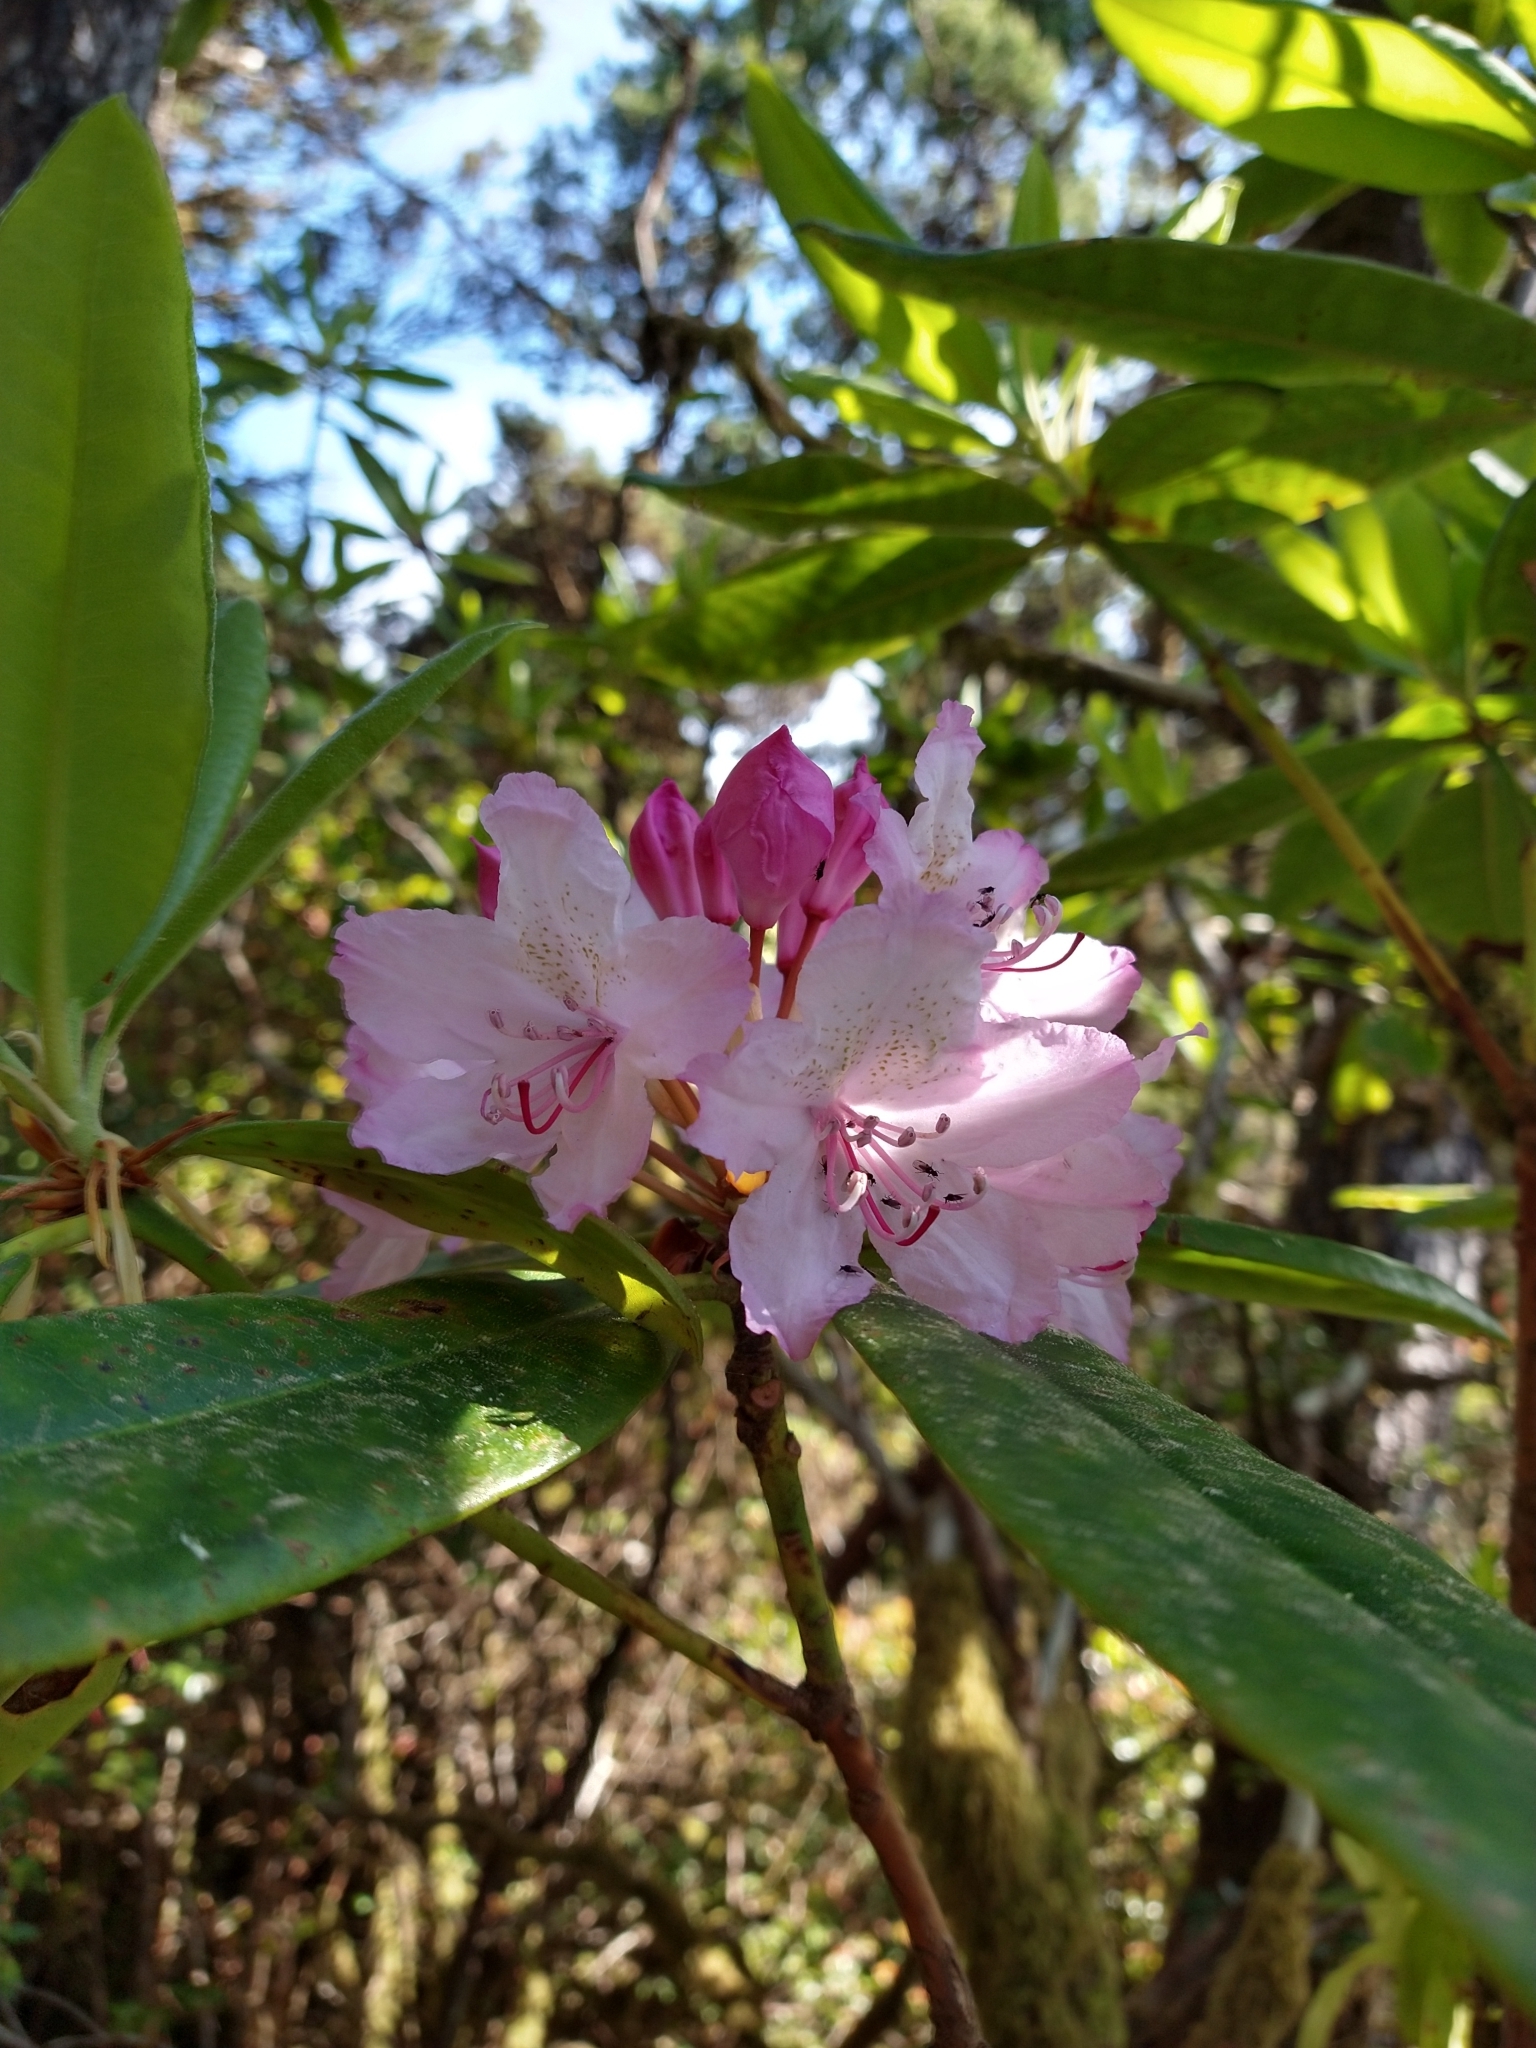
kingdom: Plantae
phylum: Tracheophyta
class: Magnoliopsida
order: Ericales
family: Ericaceae
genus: Rhododendron
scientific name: Rhododendron macrophyllum
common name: California rose bay
